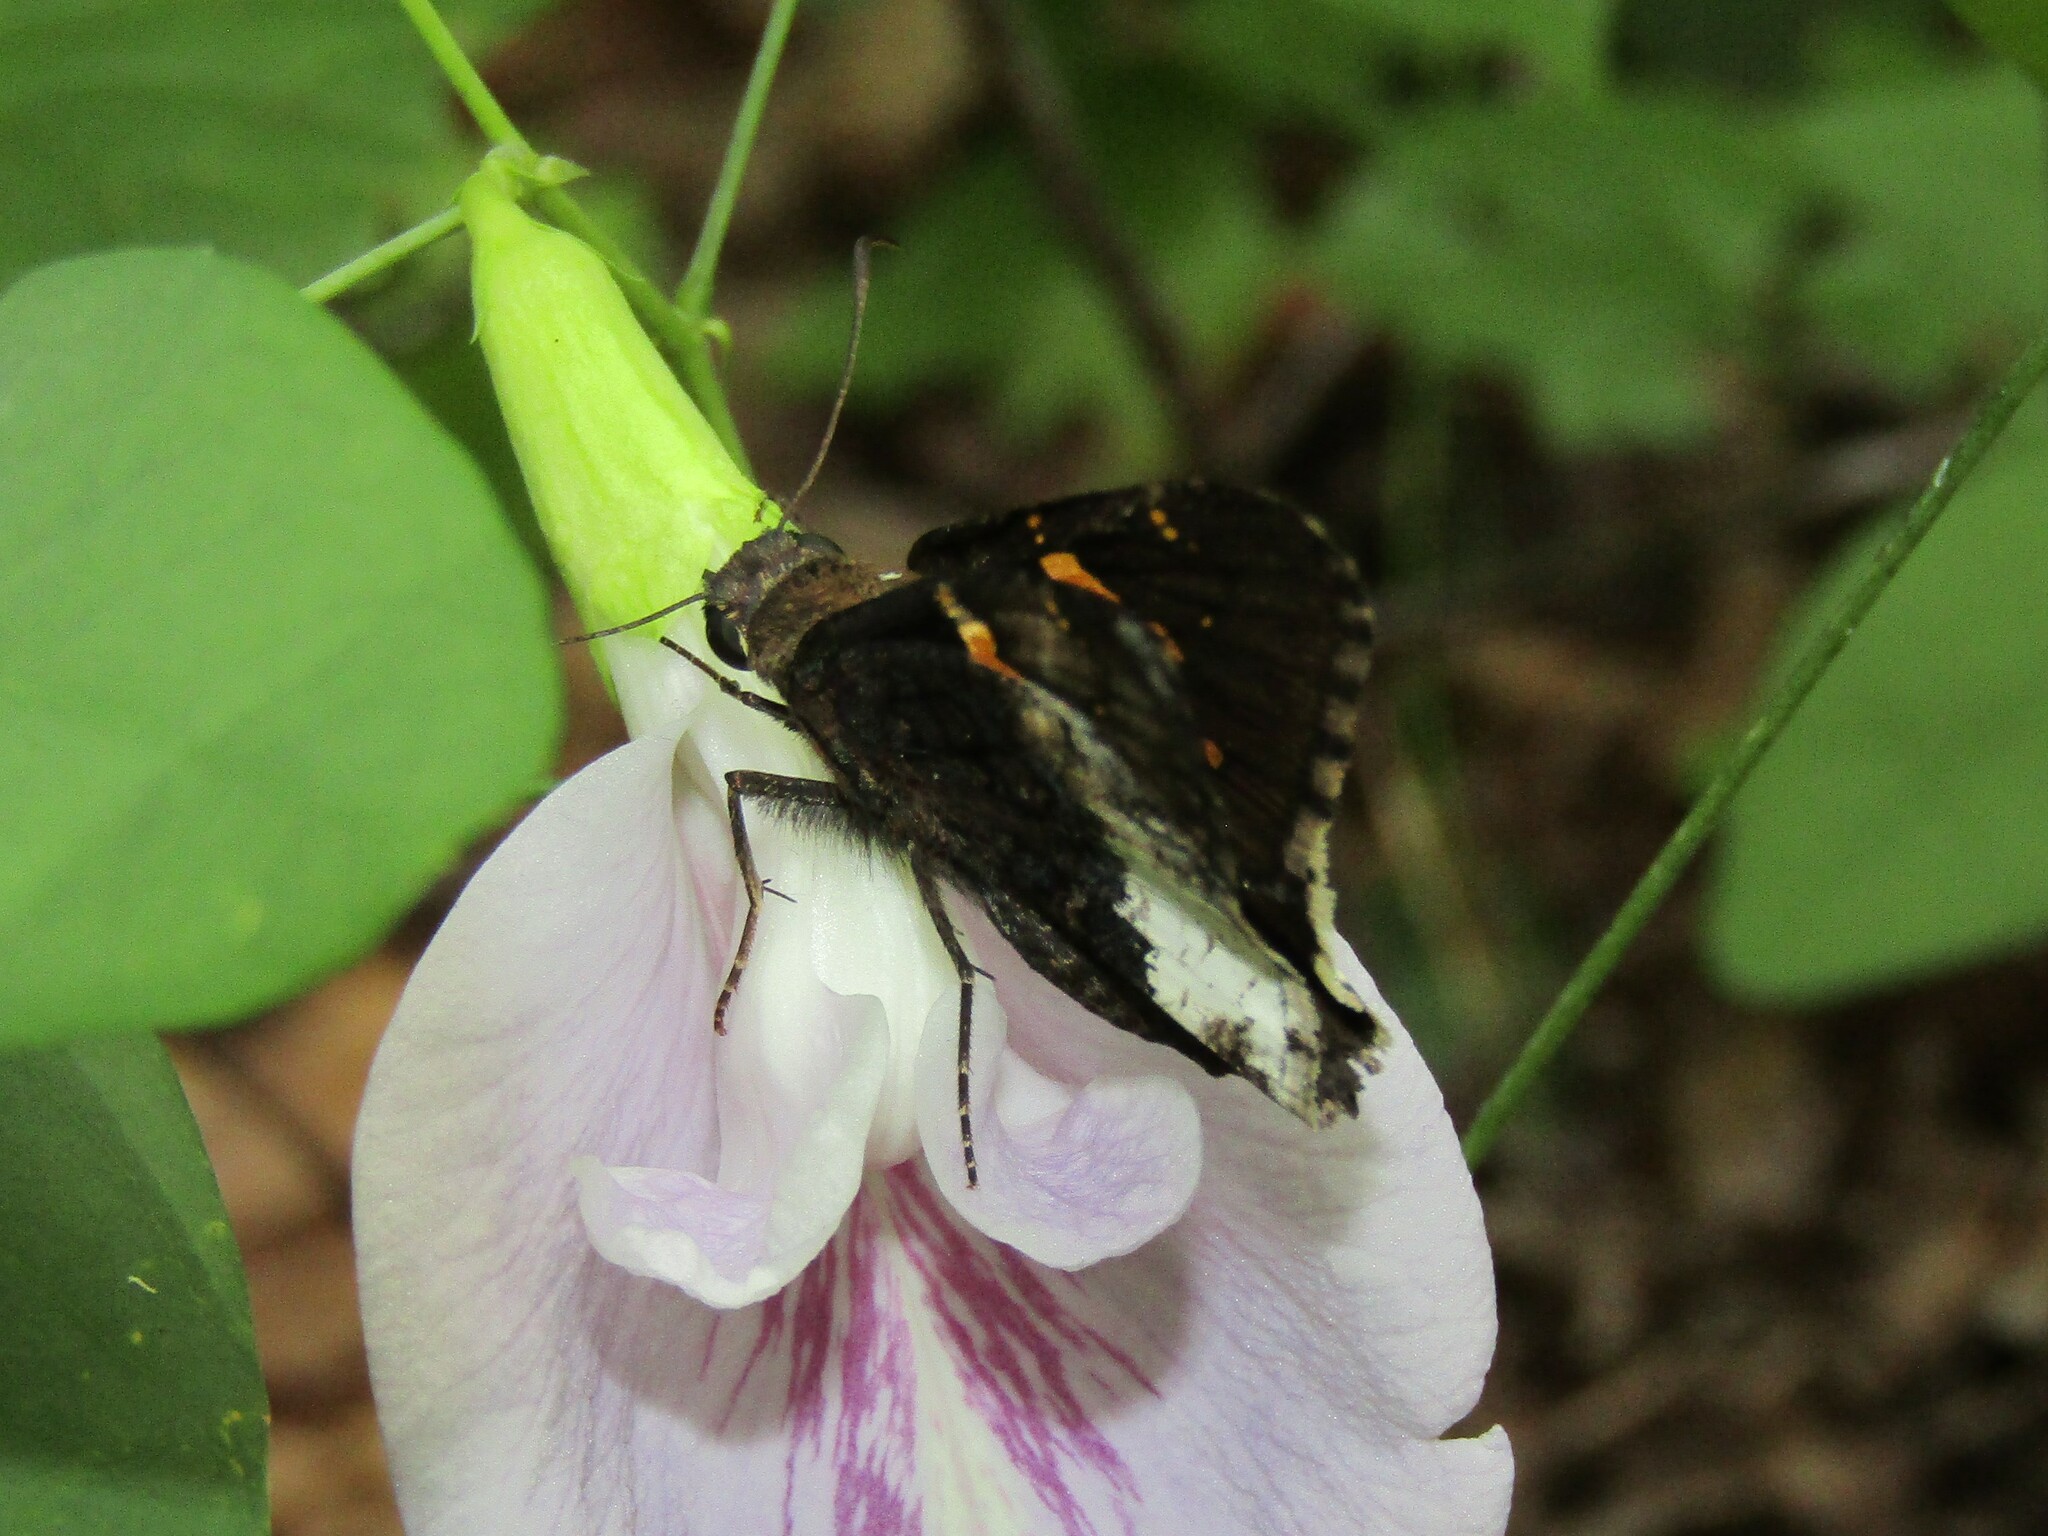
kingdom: Animalia
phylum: Arthropoda
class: Insecta
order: Lepidoptera
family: Hesperiidae
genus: Thorybes
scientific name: Thorybes lyciades
